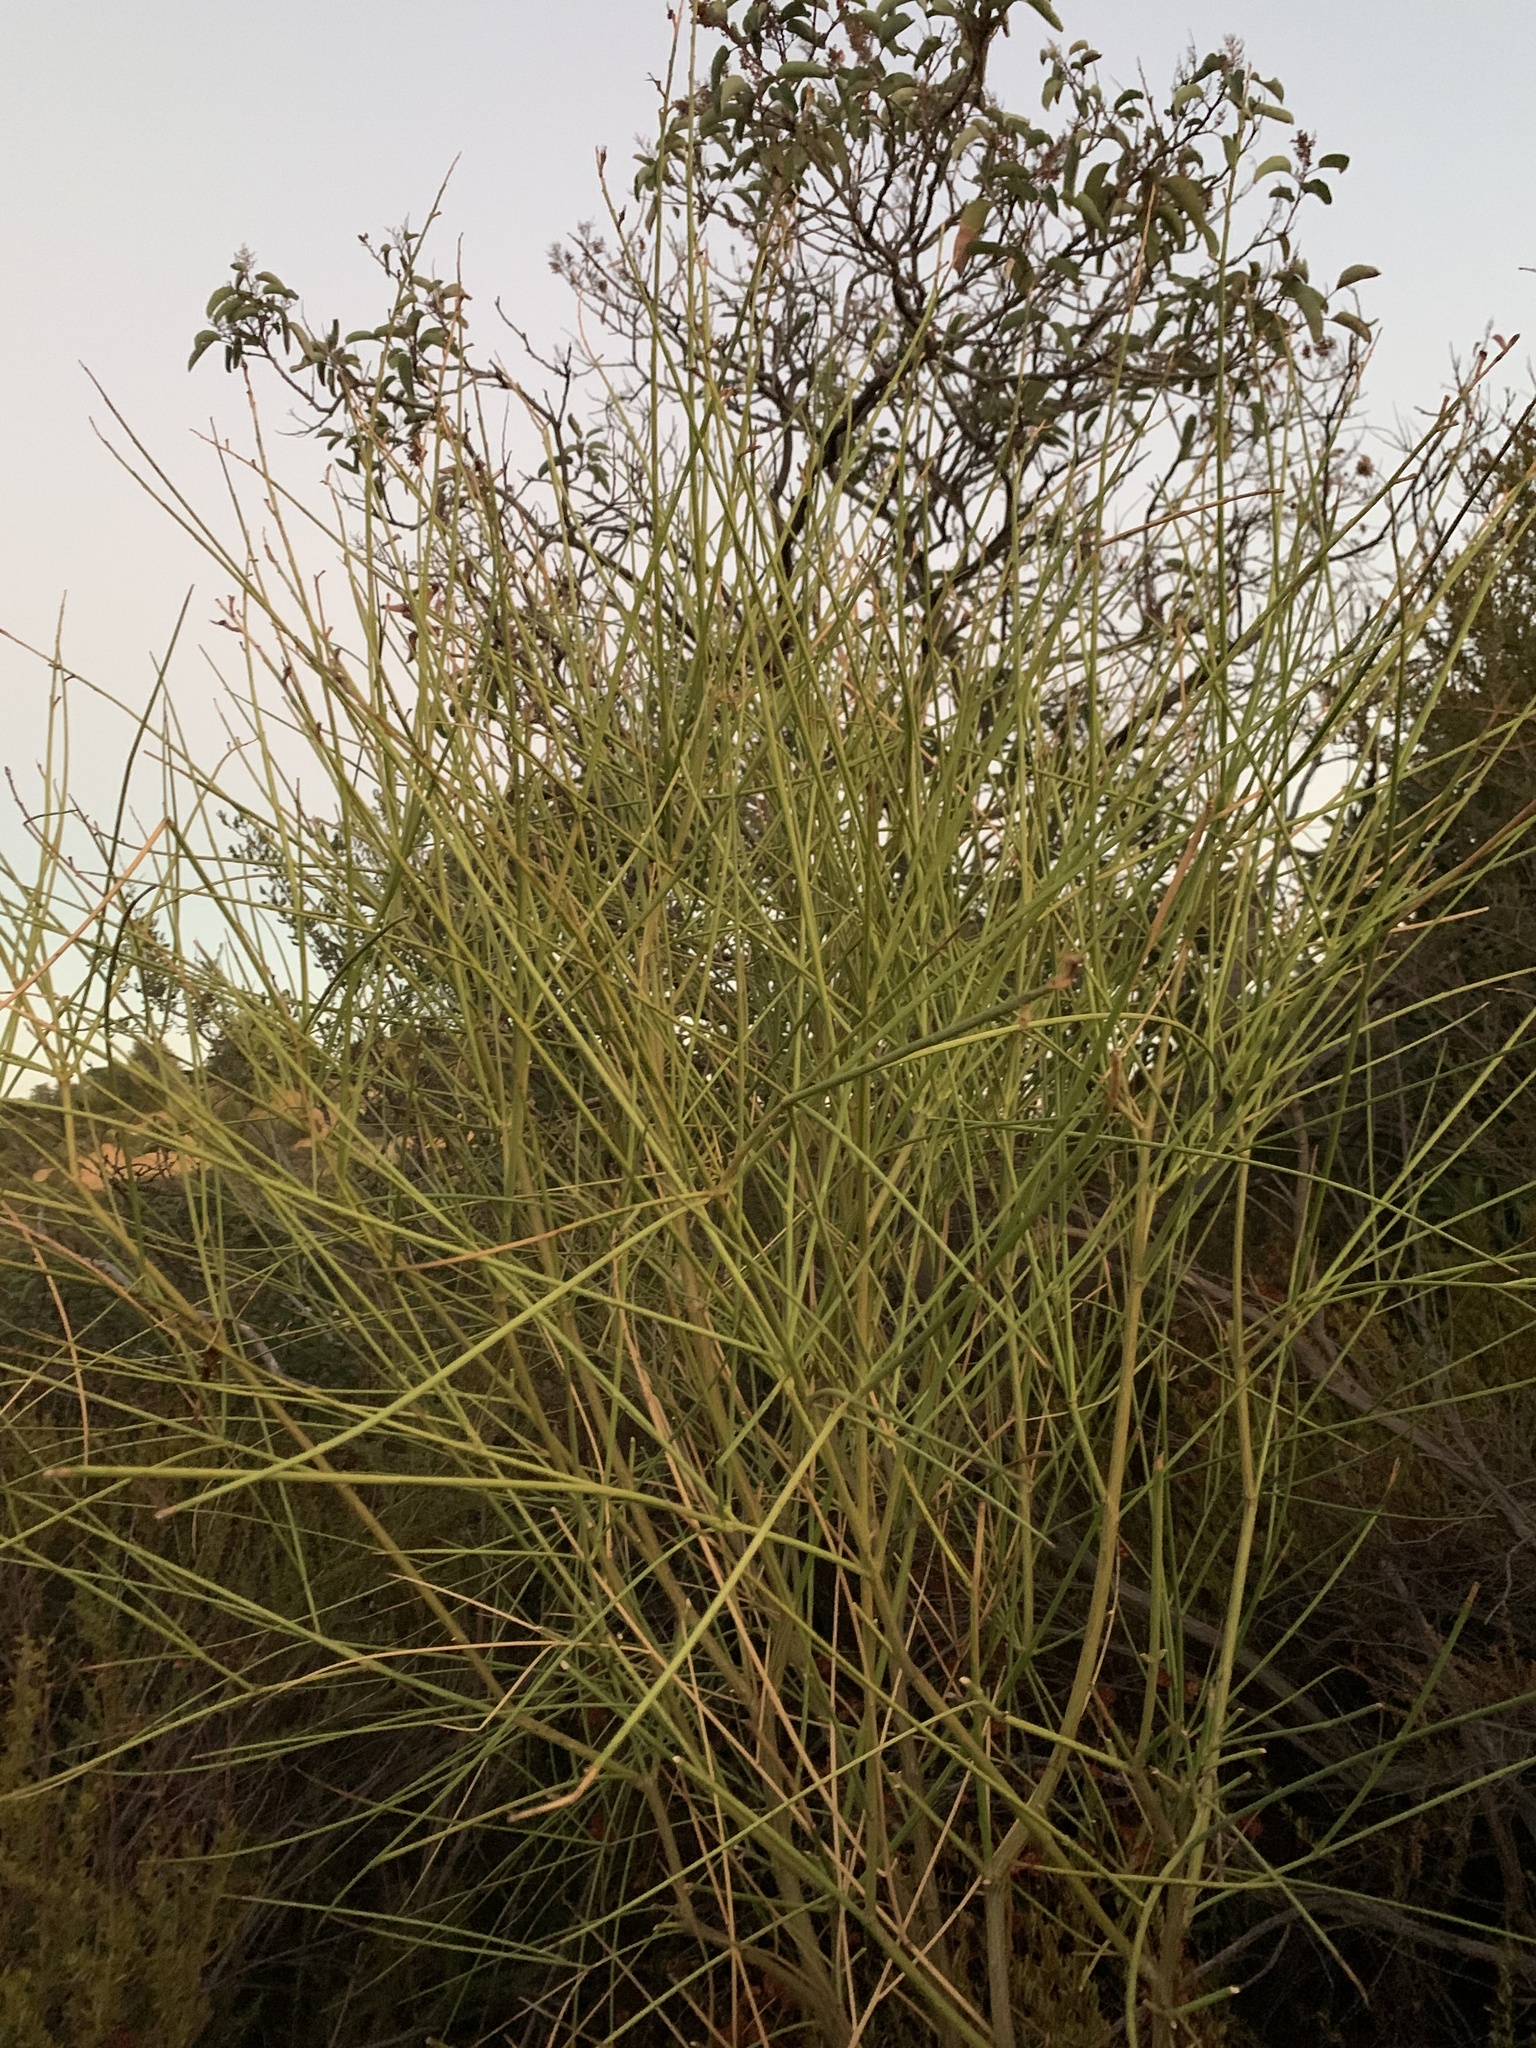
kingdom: Plantae
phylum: Tracheophyta
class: Magnoliopsida
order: Fabales
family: Fabaceae
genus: Spartium
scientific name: Spartium junceum
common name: Spanish broom
